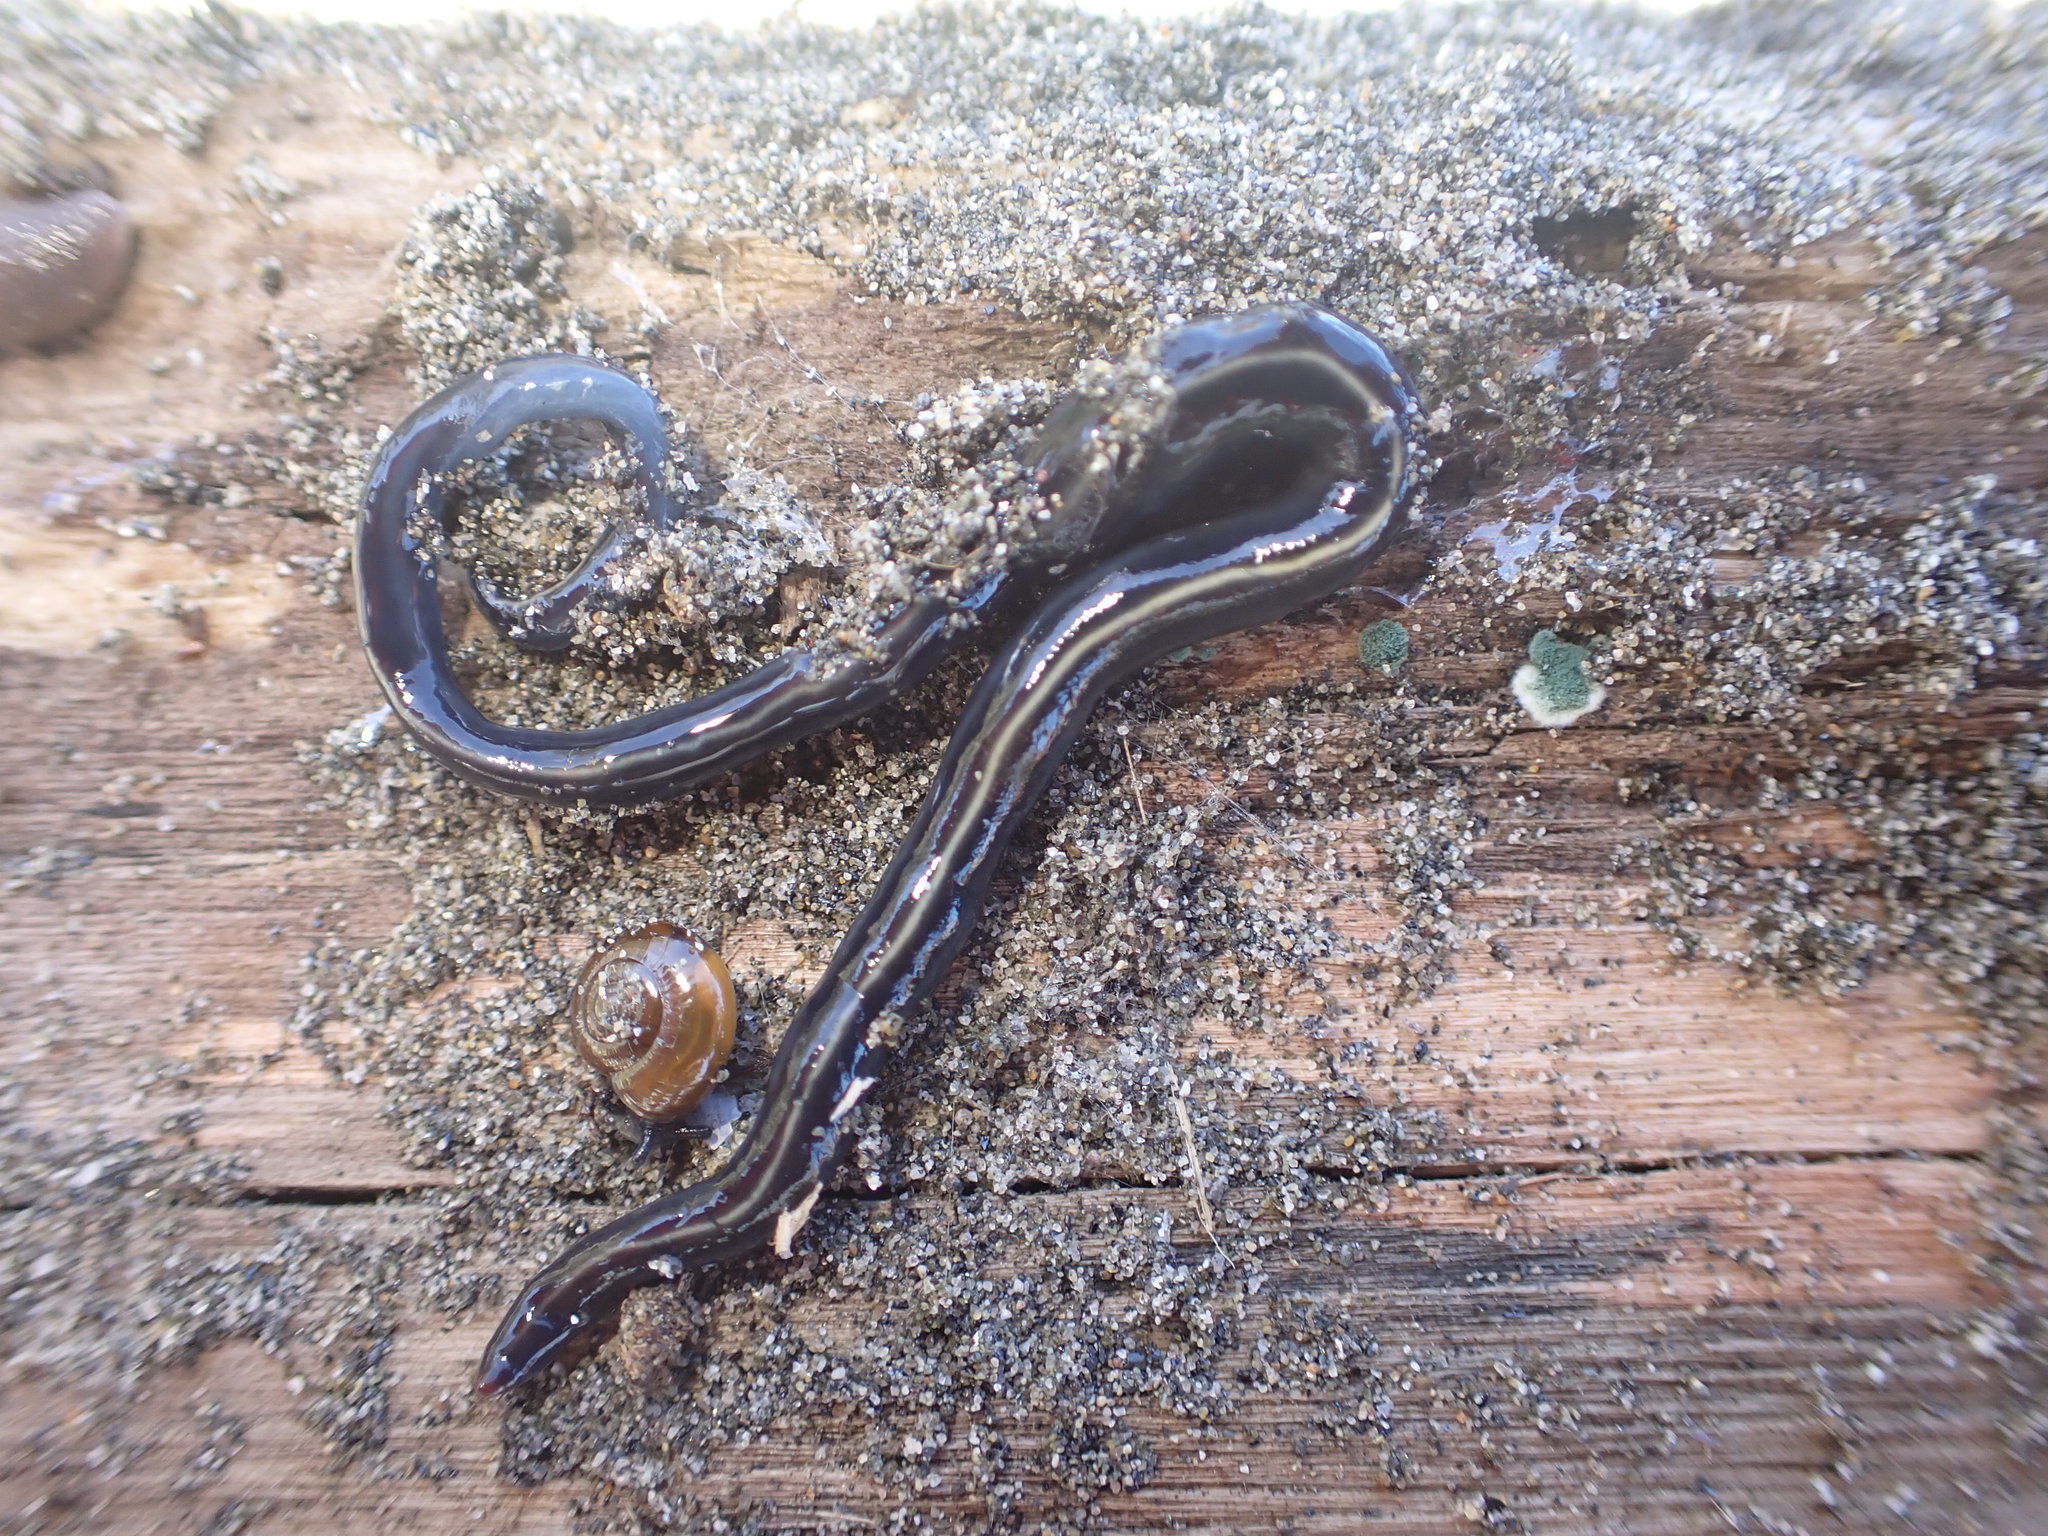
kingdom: Animalia
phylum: Platyhelminthes
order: Tricladida
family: Geoplanidae
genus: Caenoplana
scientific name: Caenoplana coerulea
